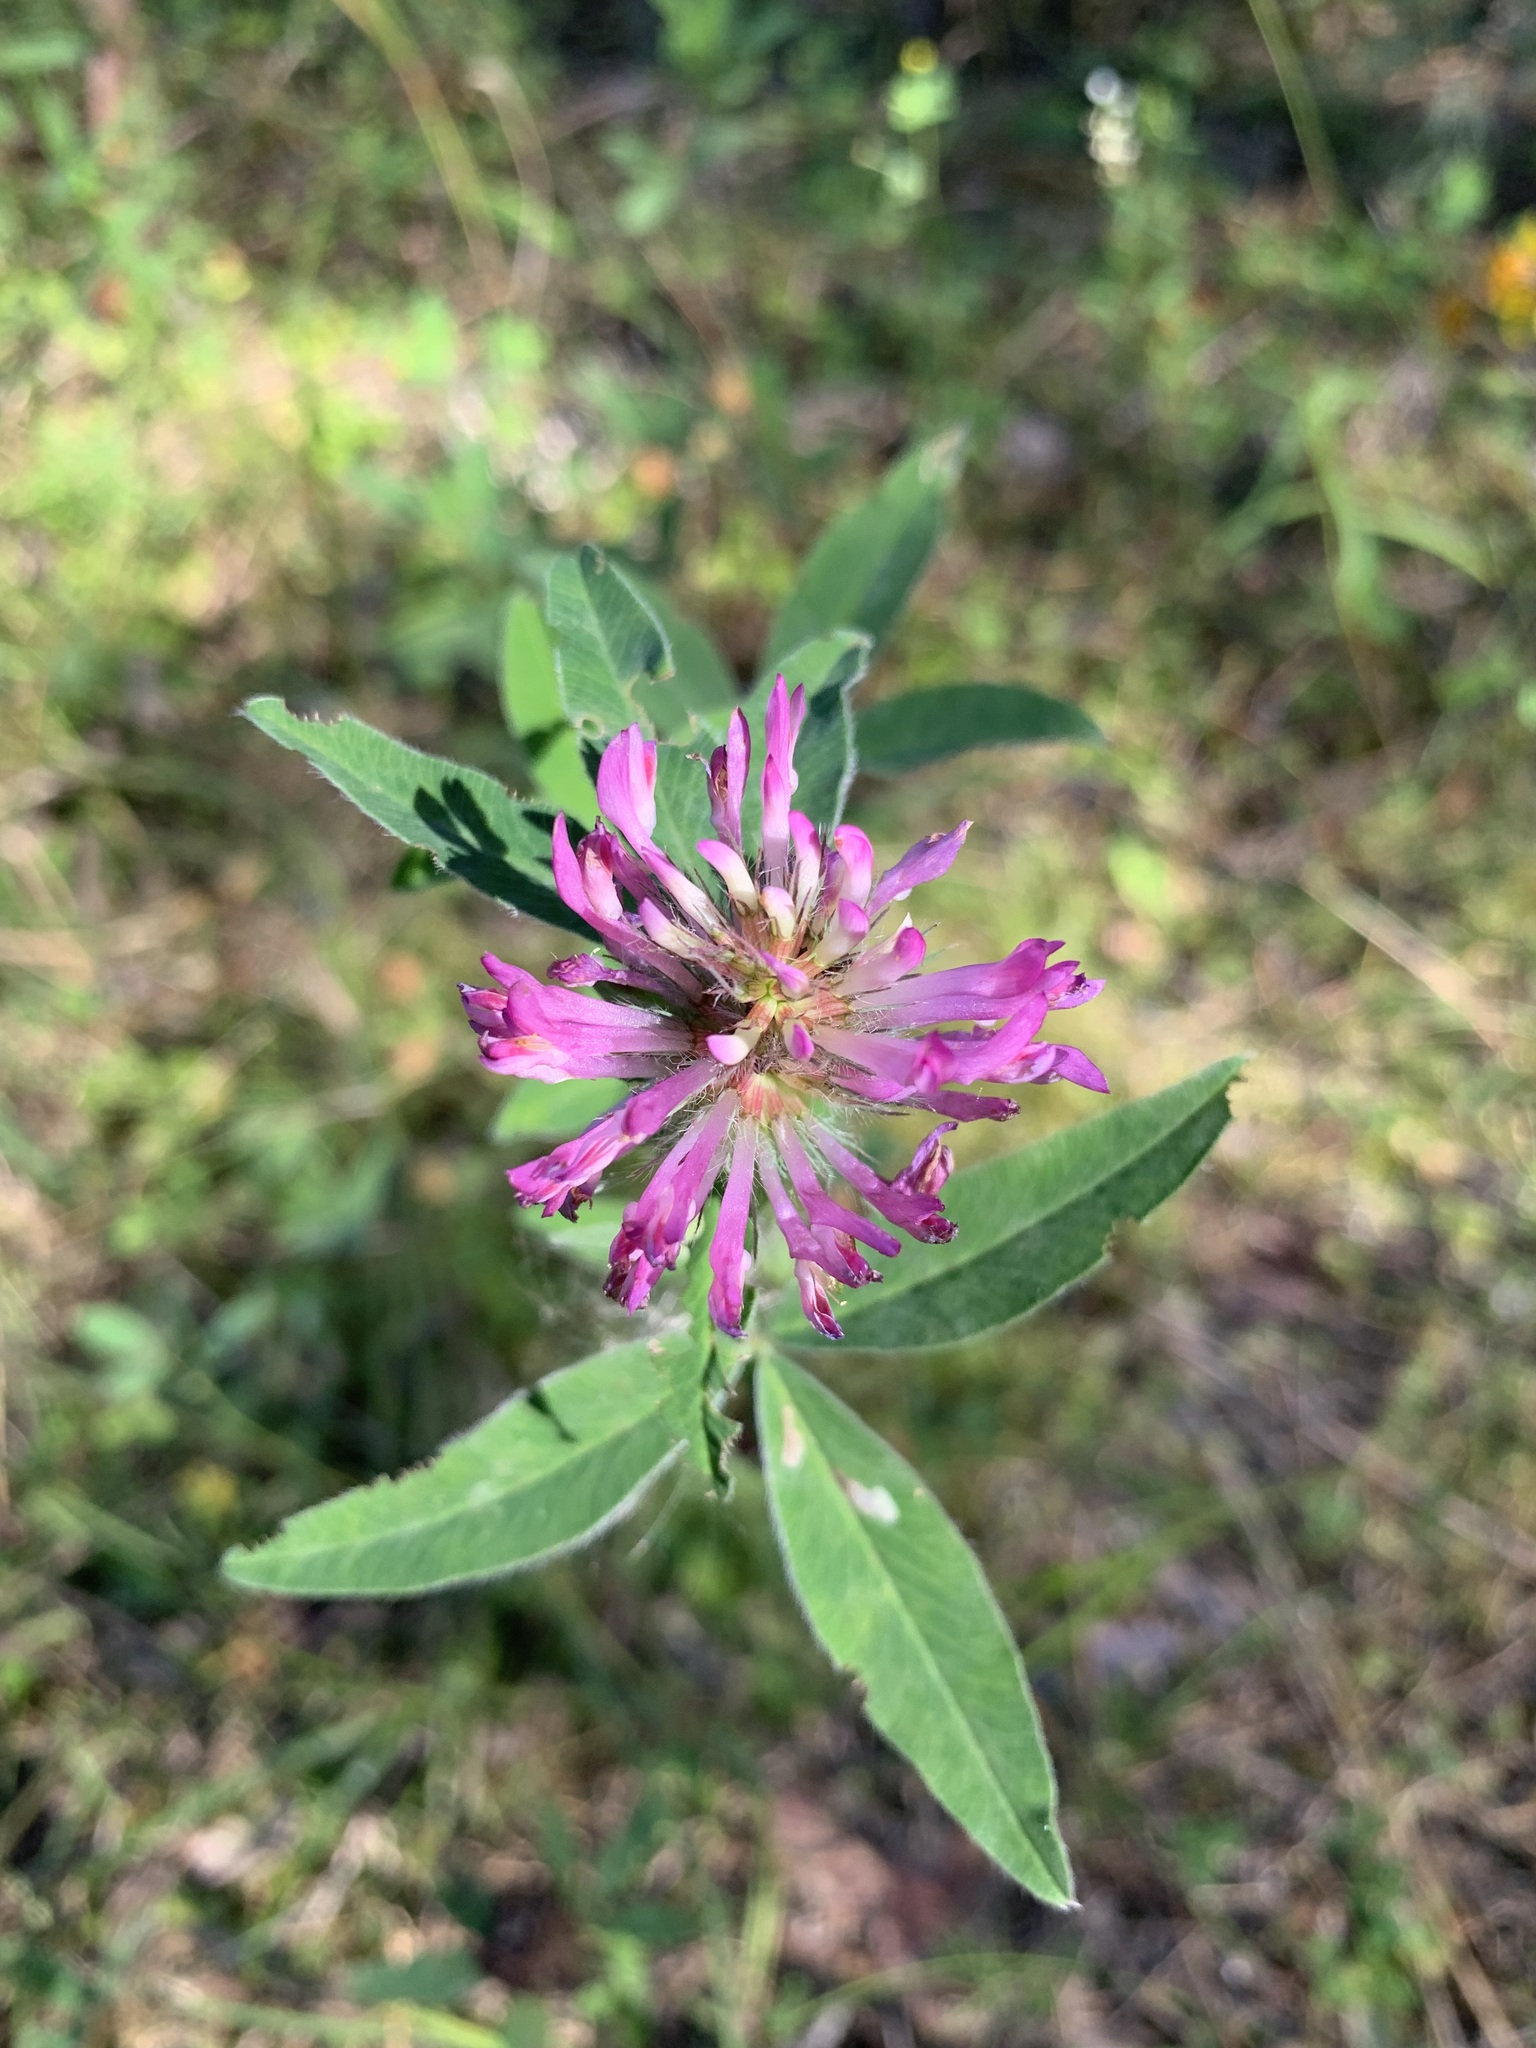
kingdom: Plantae
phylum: Tracheophyta
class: Magnoliopsida
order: Fabales
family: Fabaceae
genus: Trifolium
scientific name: Trifolium medium
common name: Zigzag clover
